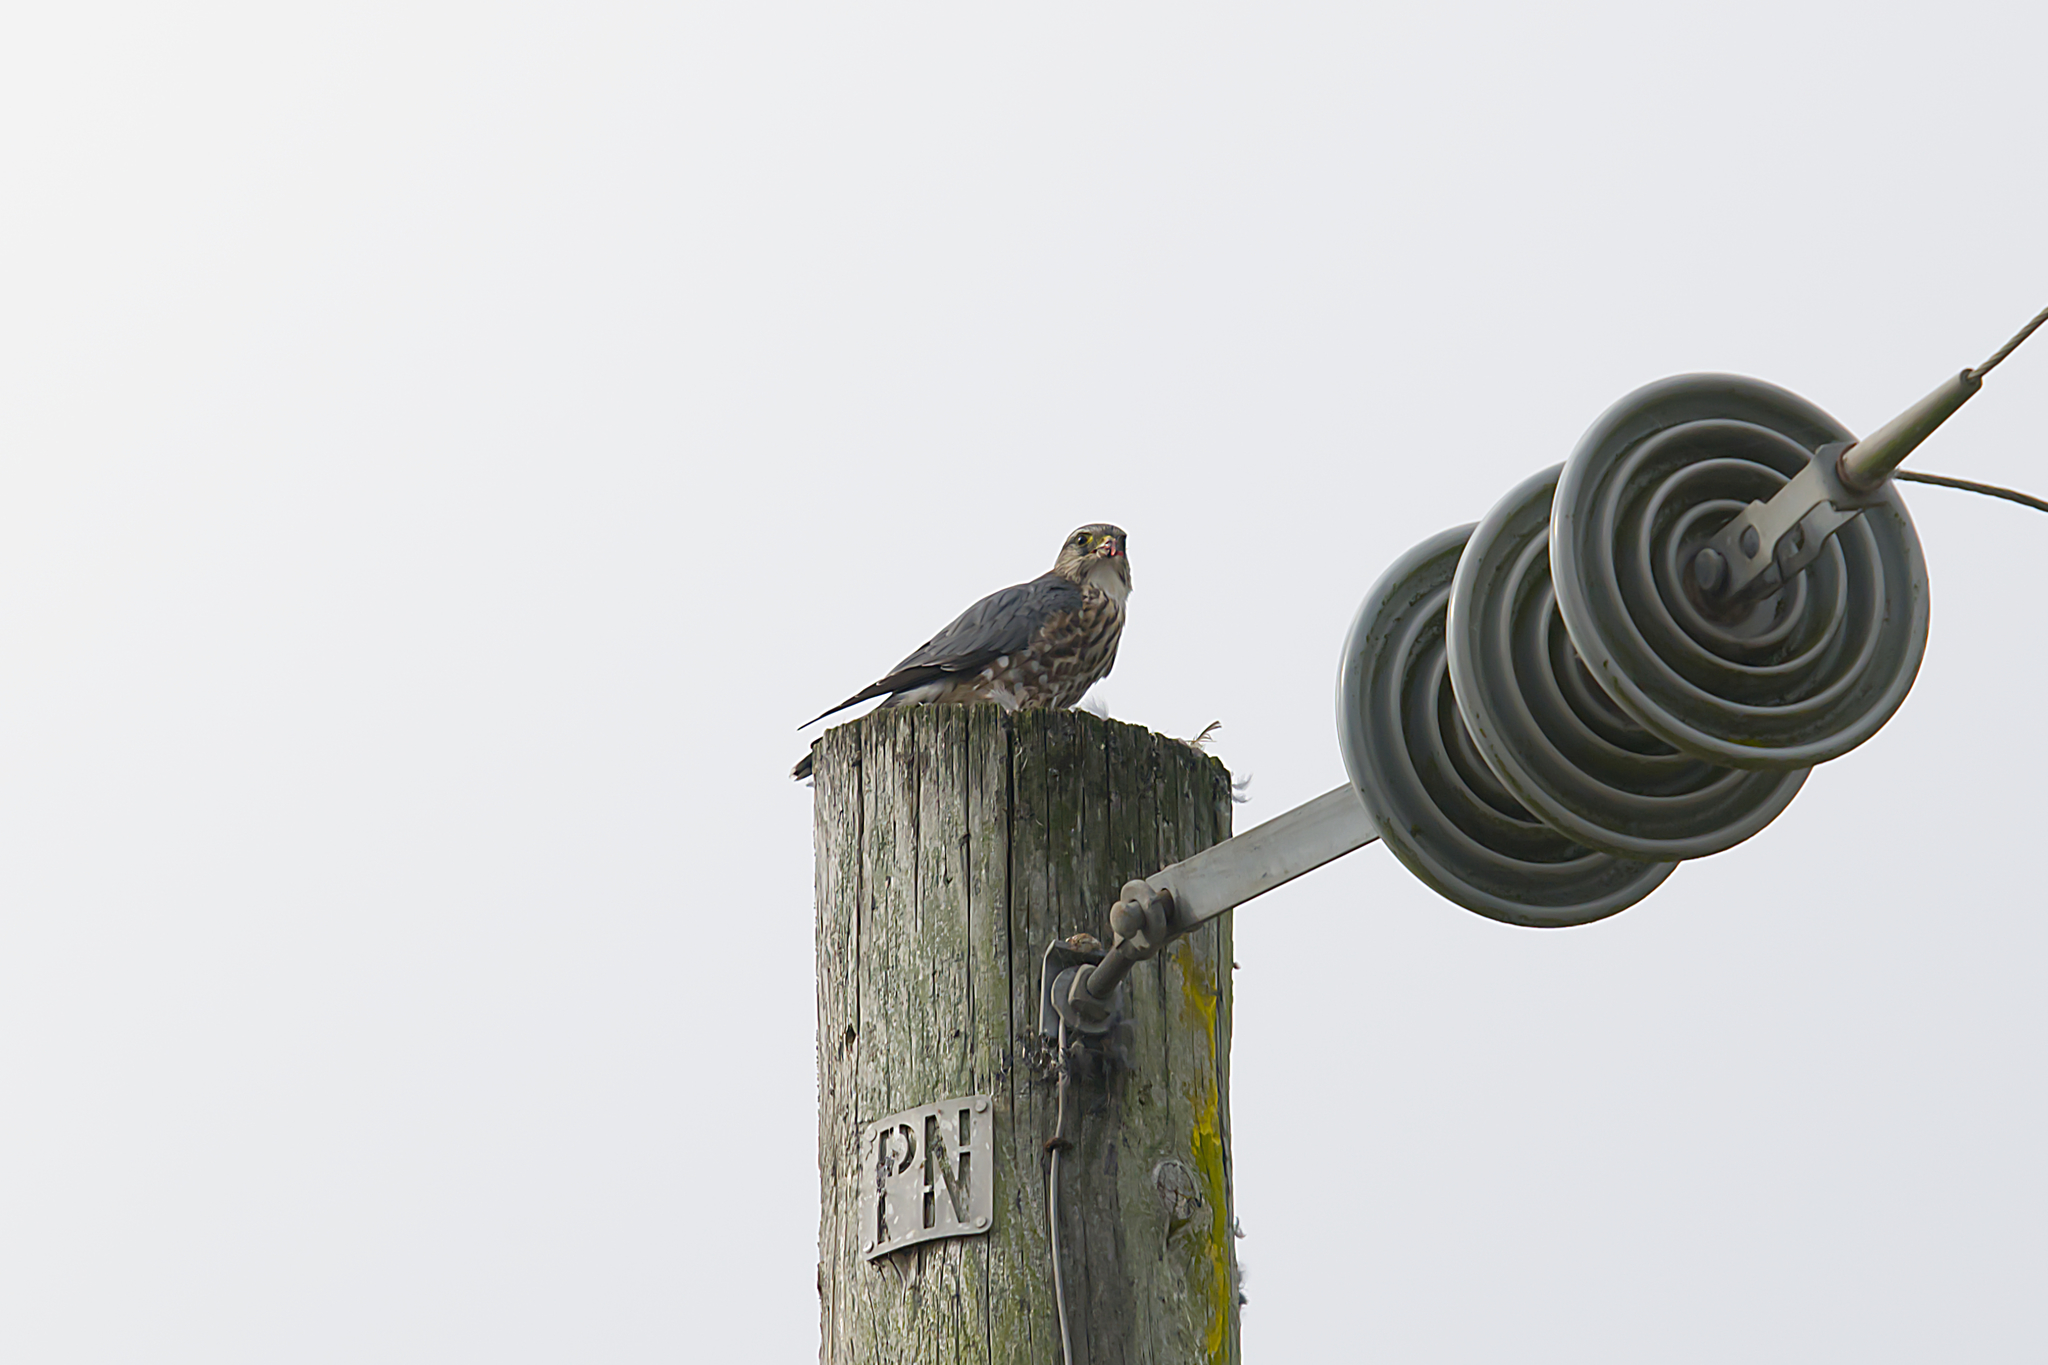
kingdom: Animalia
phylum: Chordata
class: Aves
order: Falconiformes
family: Falconidae
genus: Falco
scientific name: Falco columbarius
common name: Merlin
